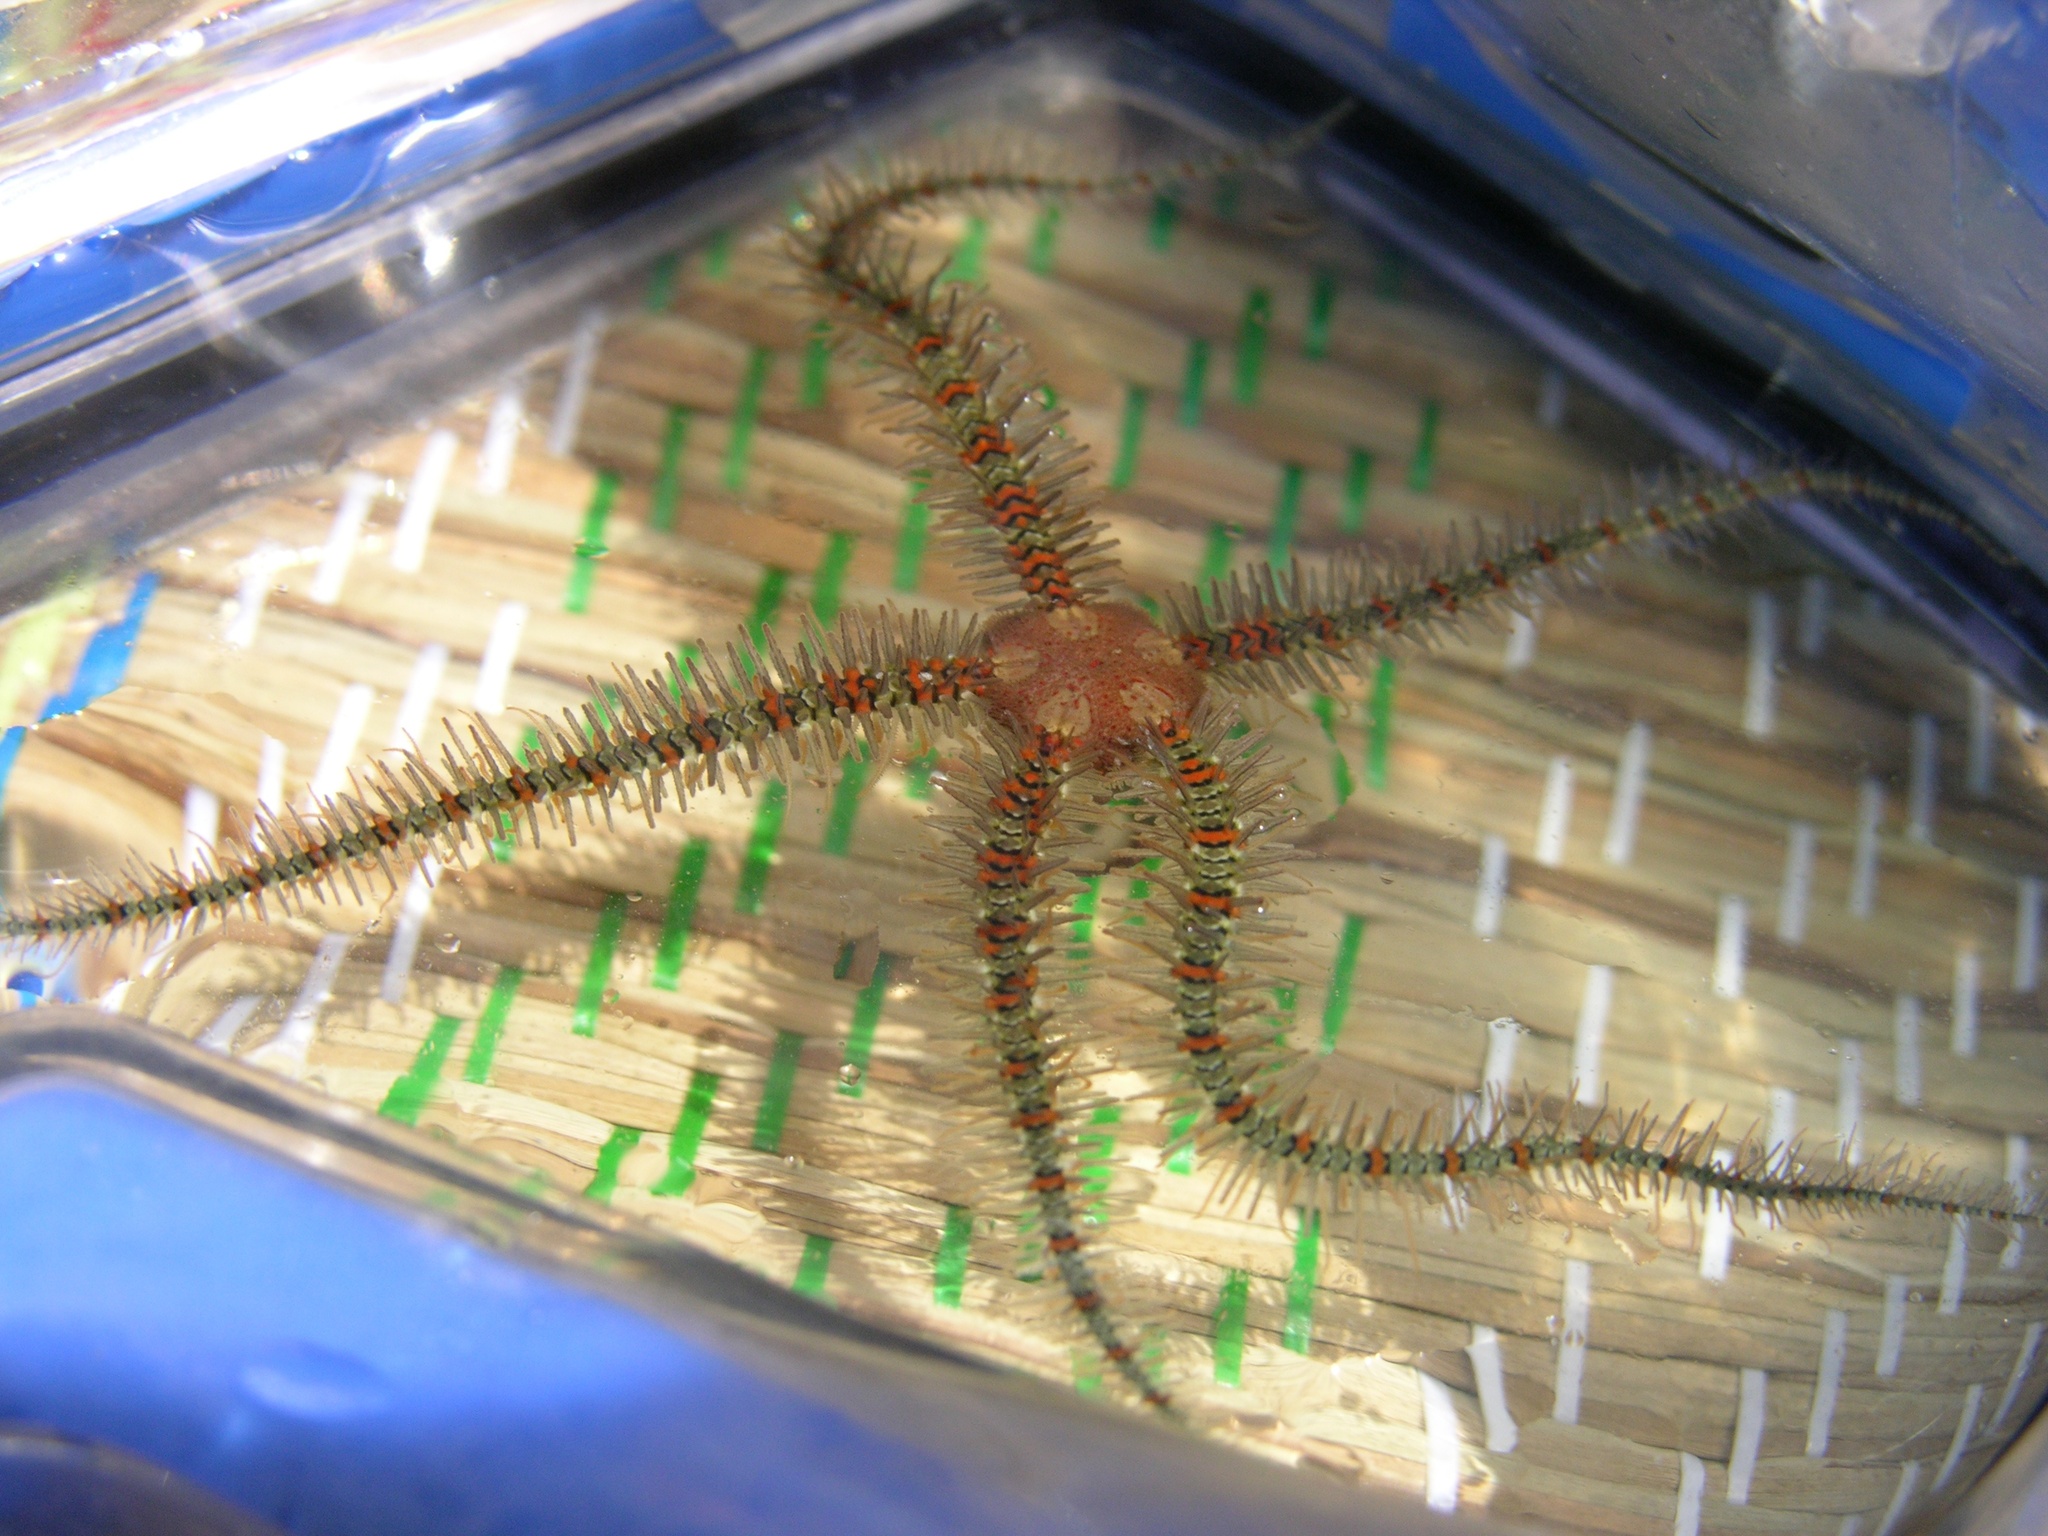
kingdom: Animalia
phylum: Echinodermata
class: Ophiuroidea
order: Amphilepidida
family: Ophiotrichidae
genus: Ophiothrix
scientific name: Ophiothrix fragilis
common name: Common brittlestar
